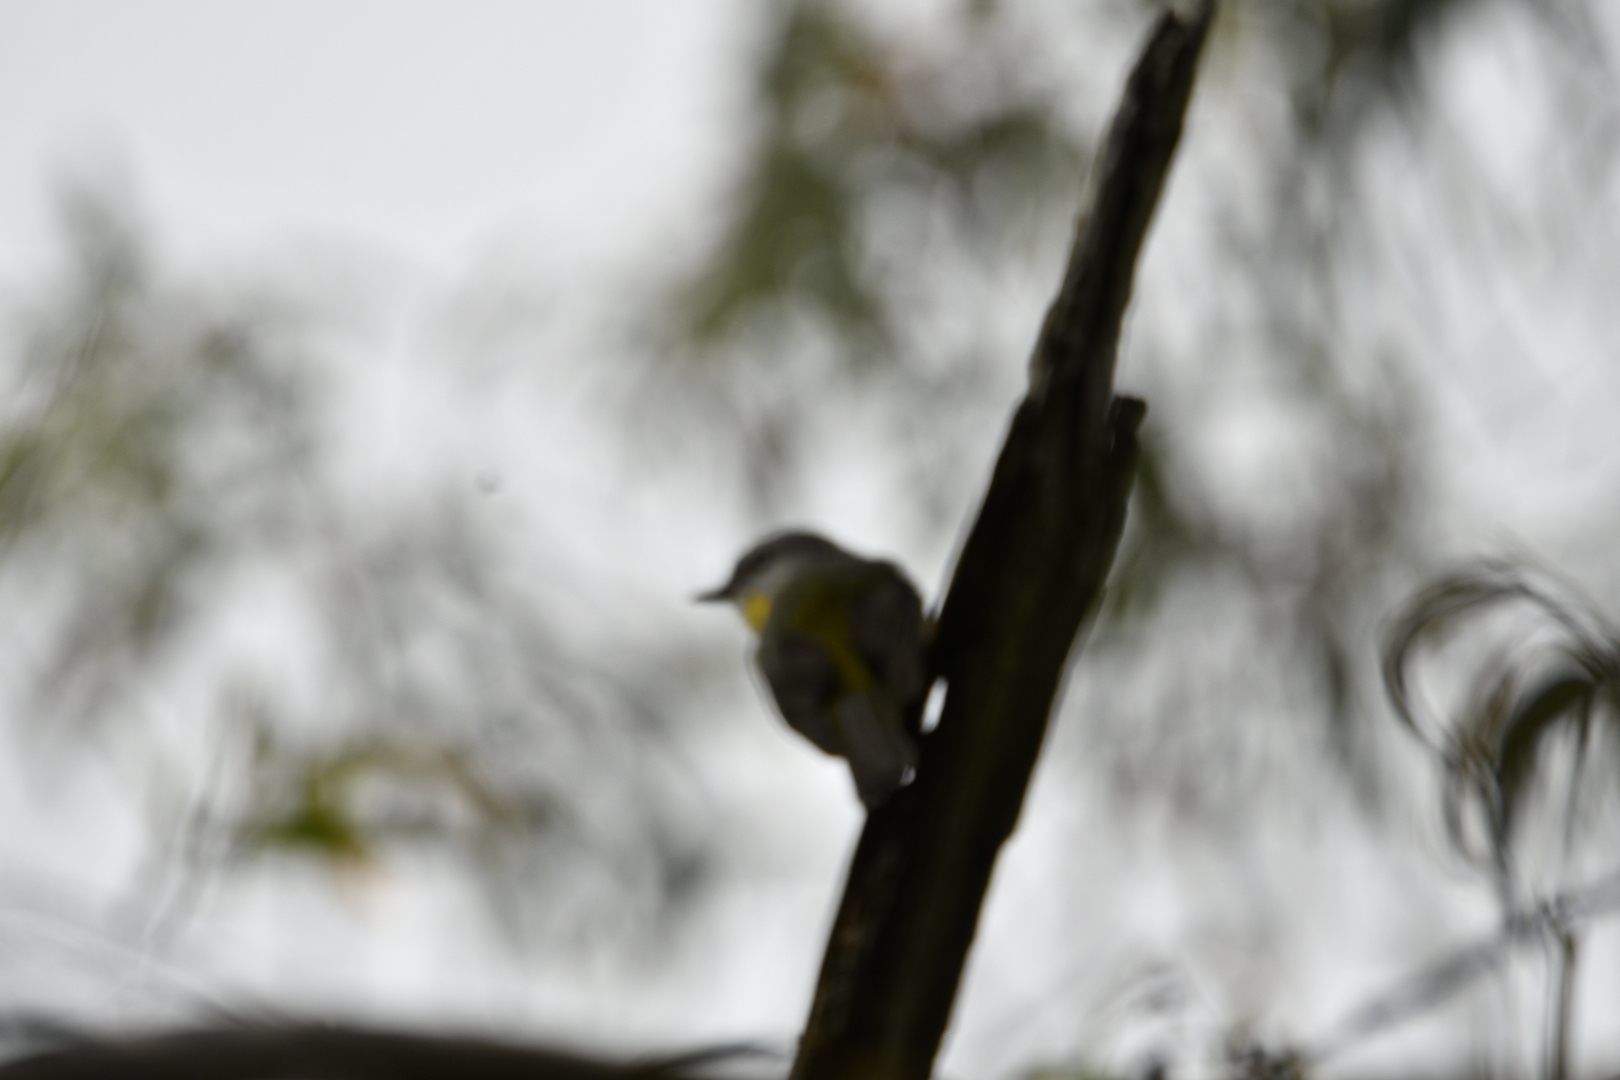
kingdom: Animalia
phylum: Chordata
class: Aves
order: Passeriformes
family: Petroicidae
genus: Eopsaltria
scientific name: Eopsaltria australis
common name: Eastern yellow robin
